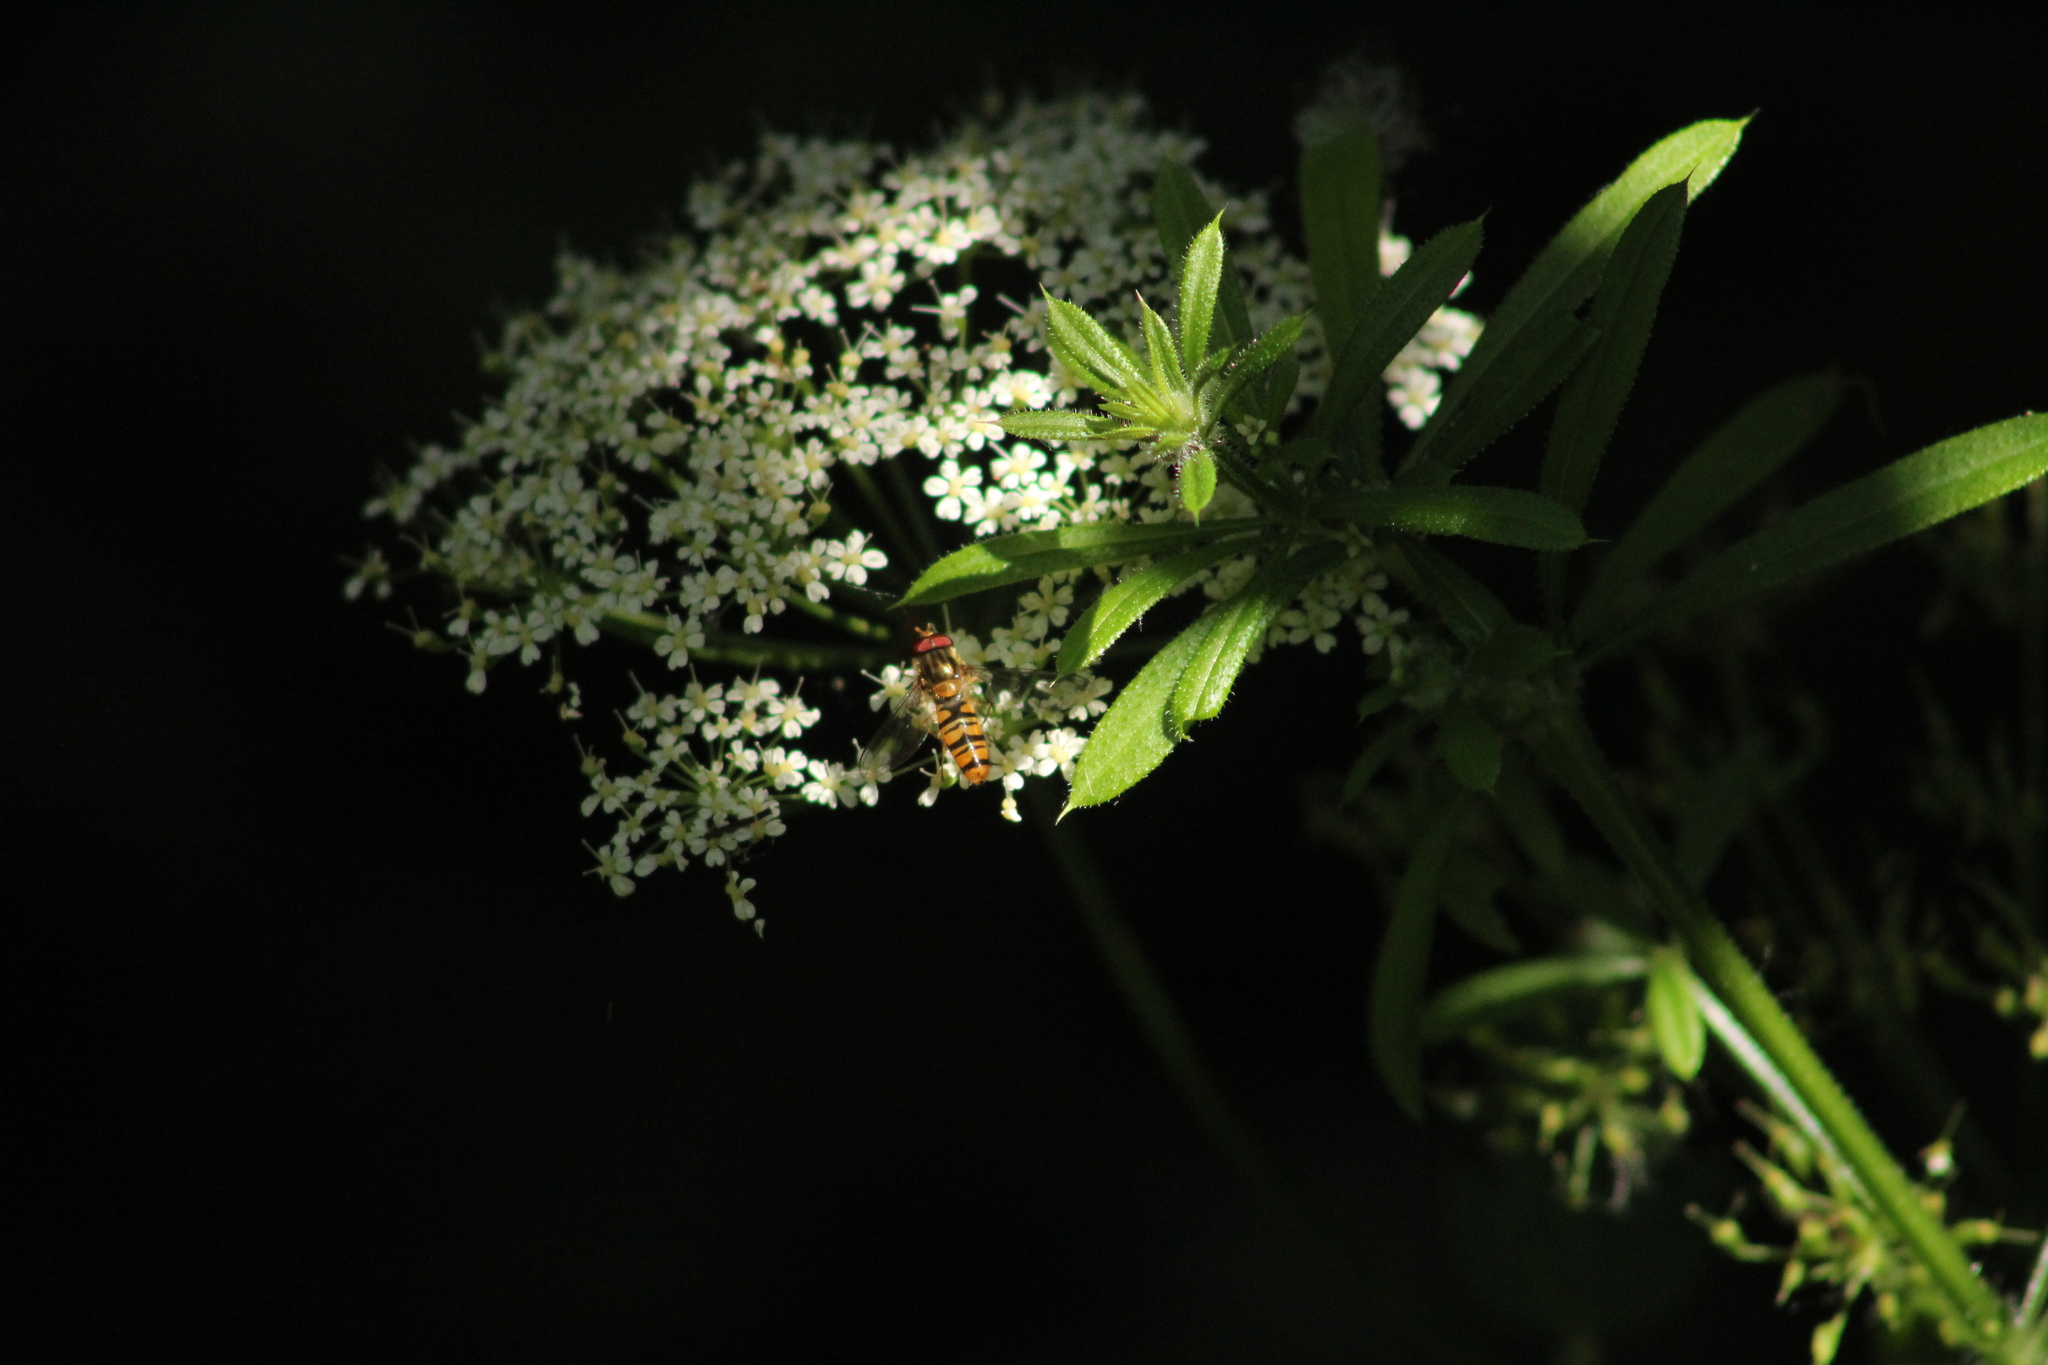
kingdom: Animalia
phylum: Arthropoda
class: Insecta
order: Diptera
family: Syrphidae
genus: Episyrphus
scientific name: Episyrphus balteatus
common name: Marmalade hoverfly
